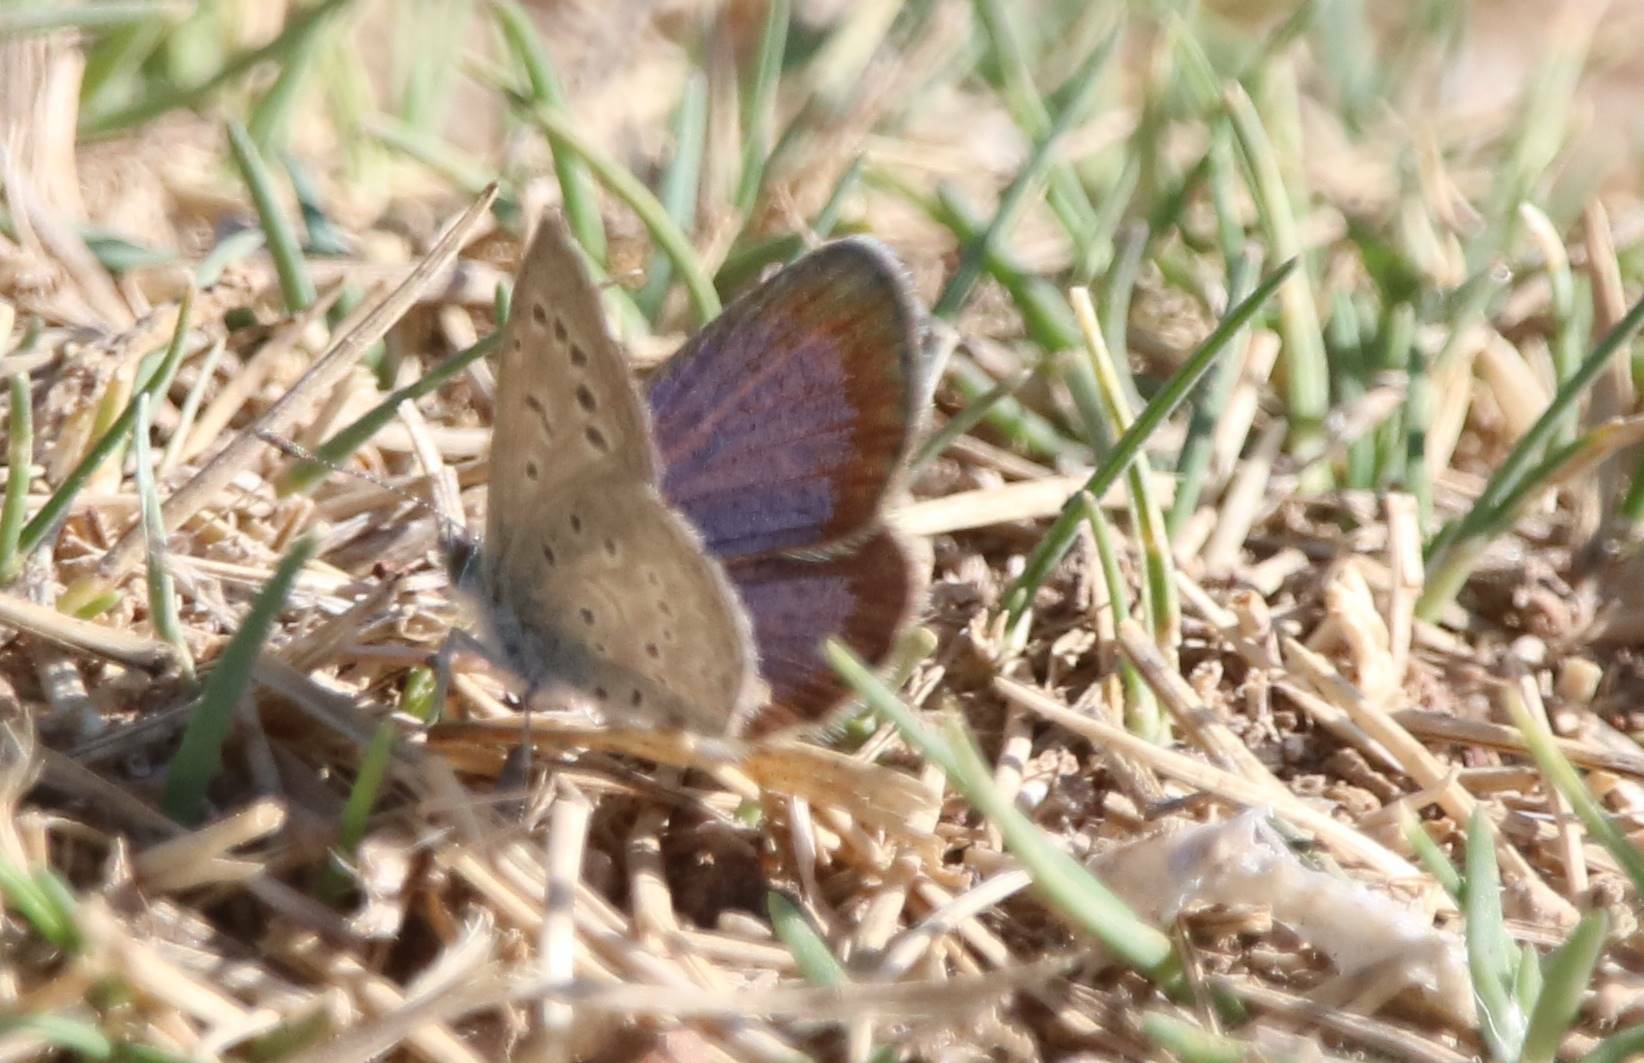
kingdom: Animalia
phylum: Arthropoda
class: Insecta
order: Lepidoptera
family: Lycaenidae
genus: Zizeeria
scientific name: Zizeeria knysna
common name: African grass blue
